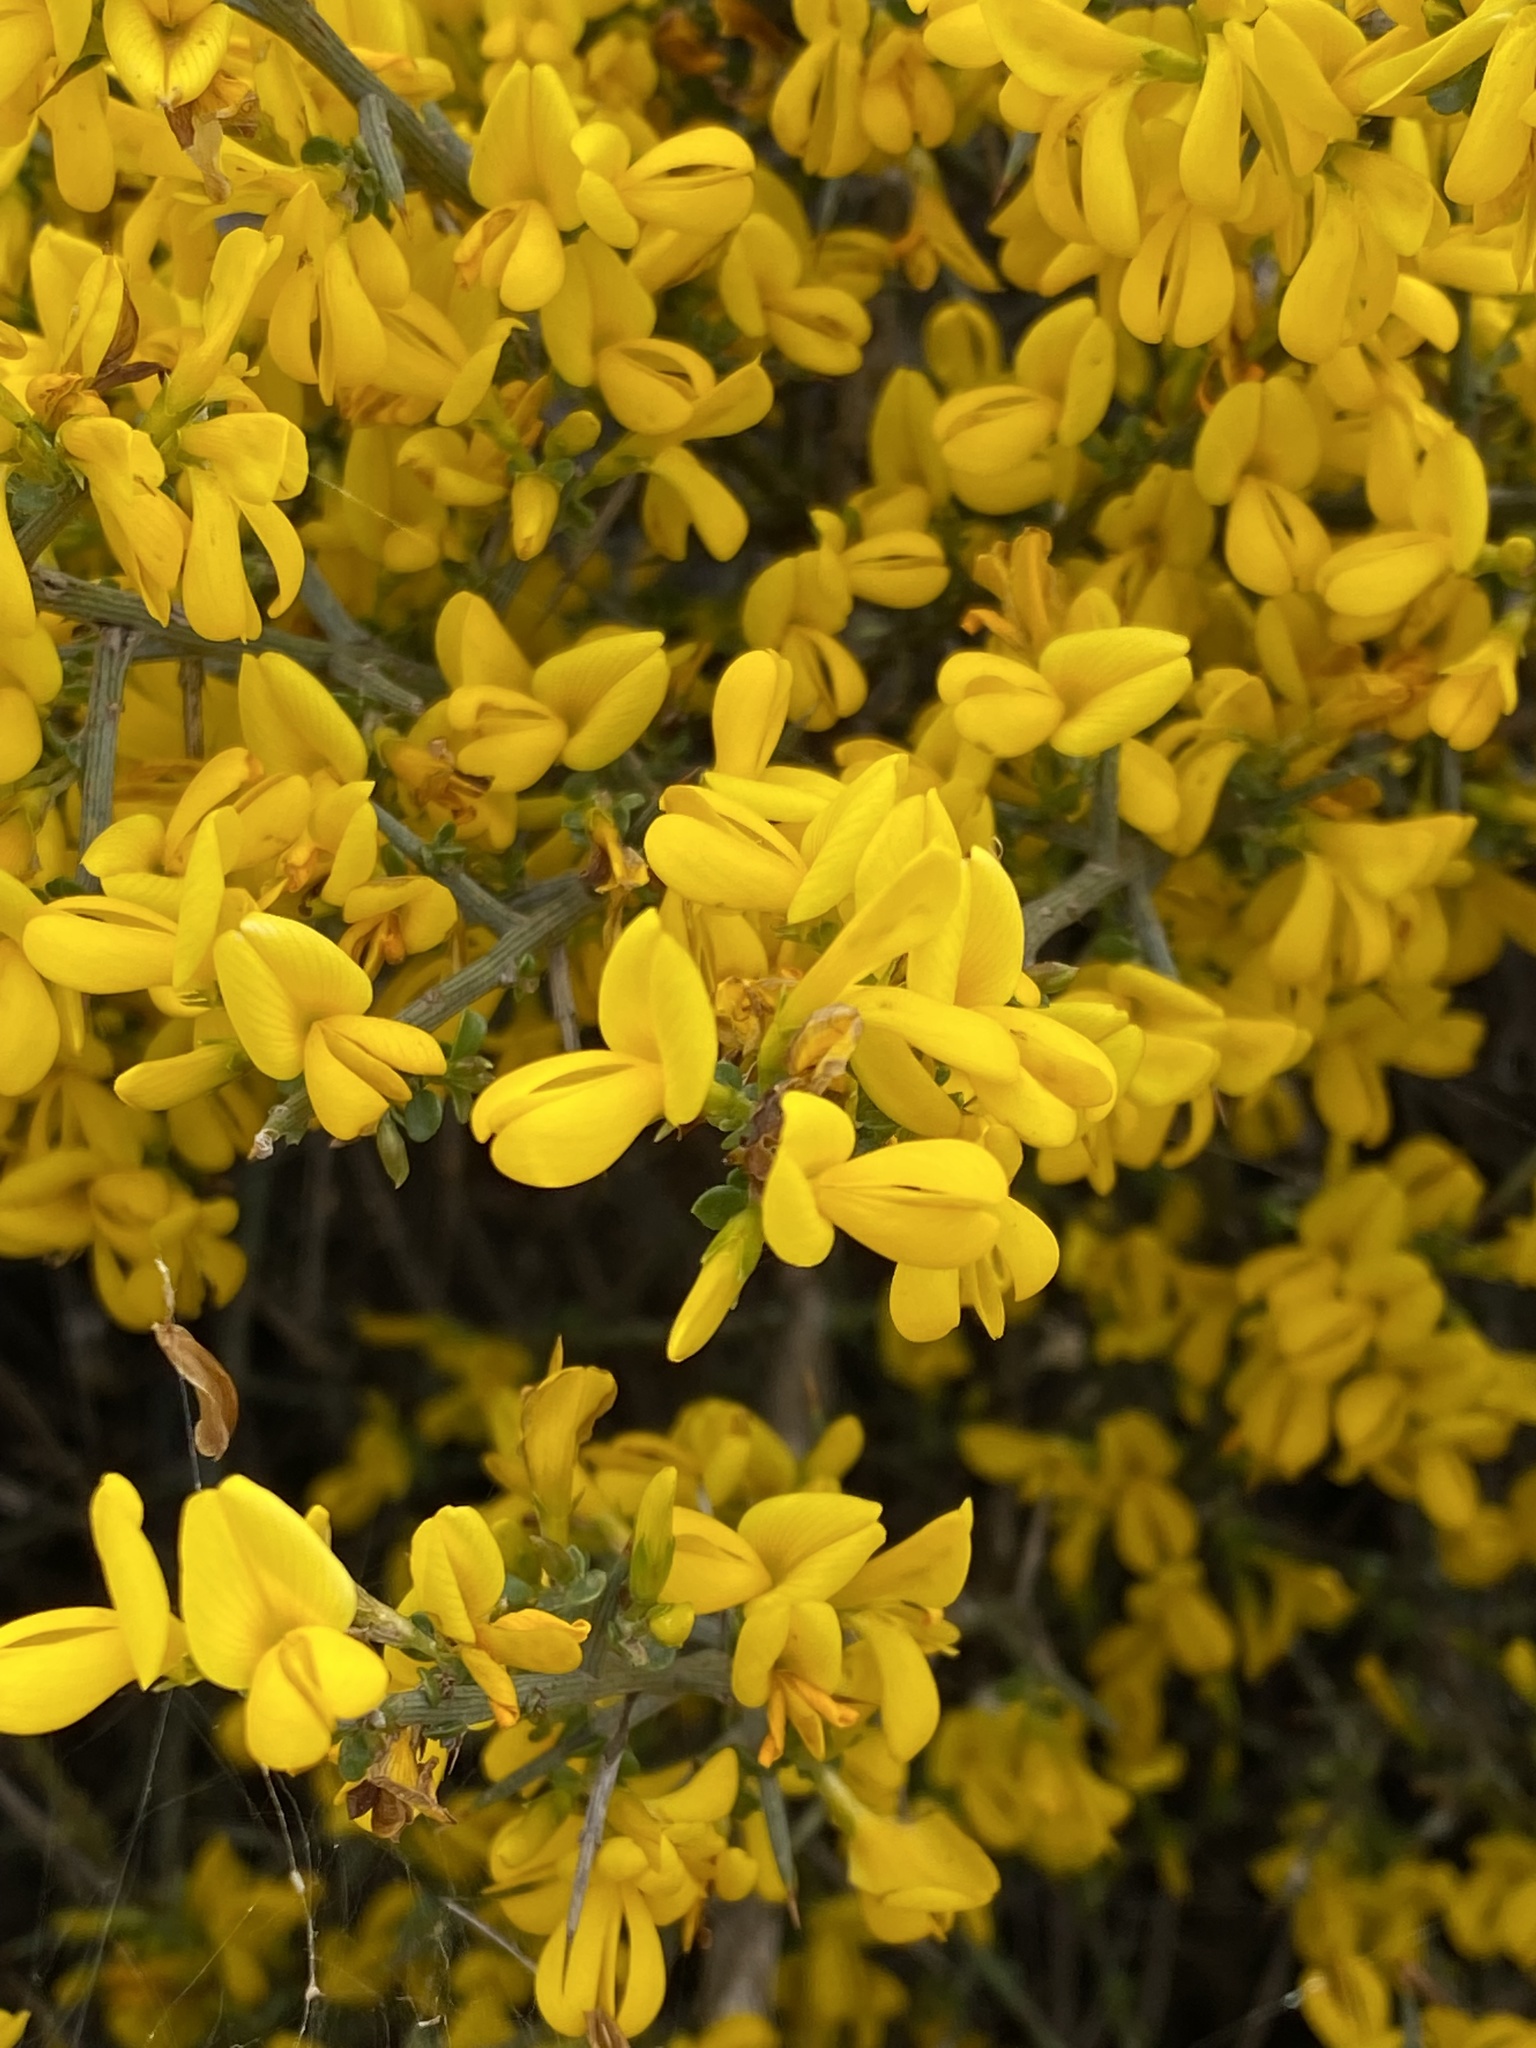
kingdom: Plantae
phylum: Tracheophyta
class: Magnoliopsida
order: Fabales
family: Fabaceae
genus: Genista
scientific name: Genista scorpius
